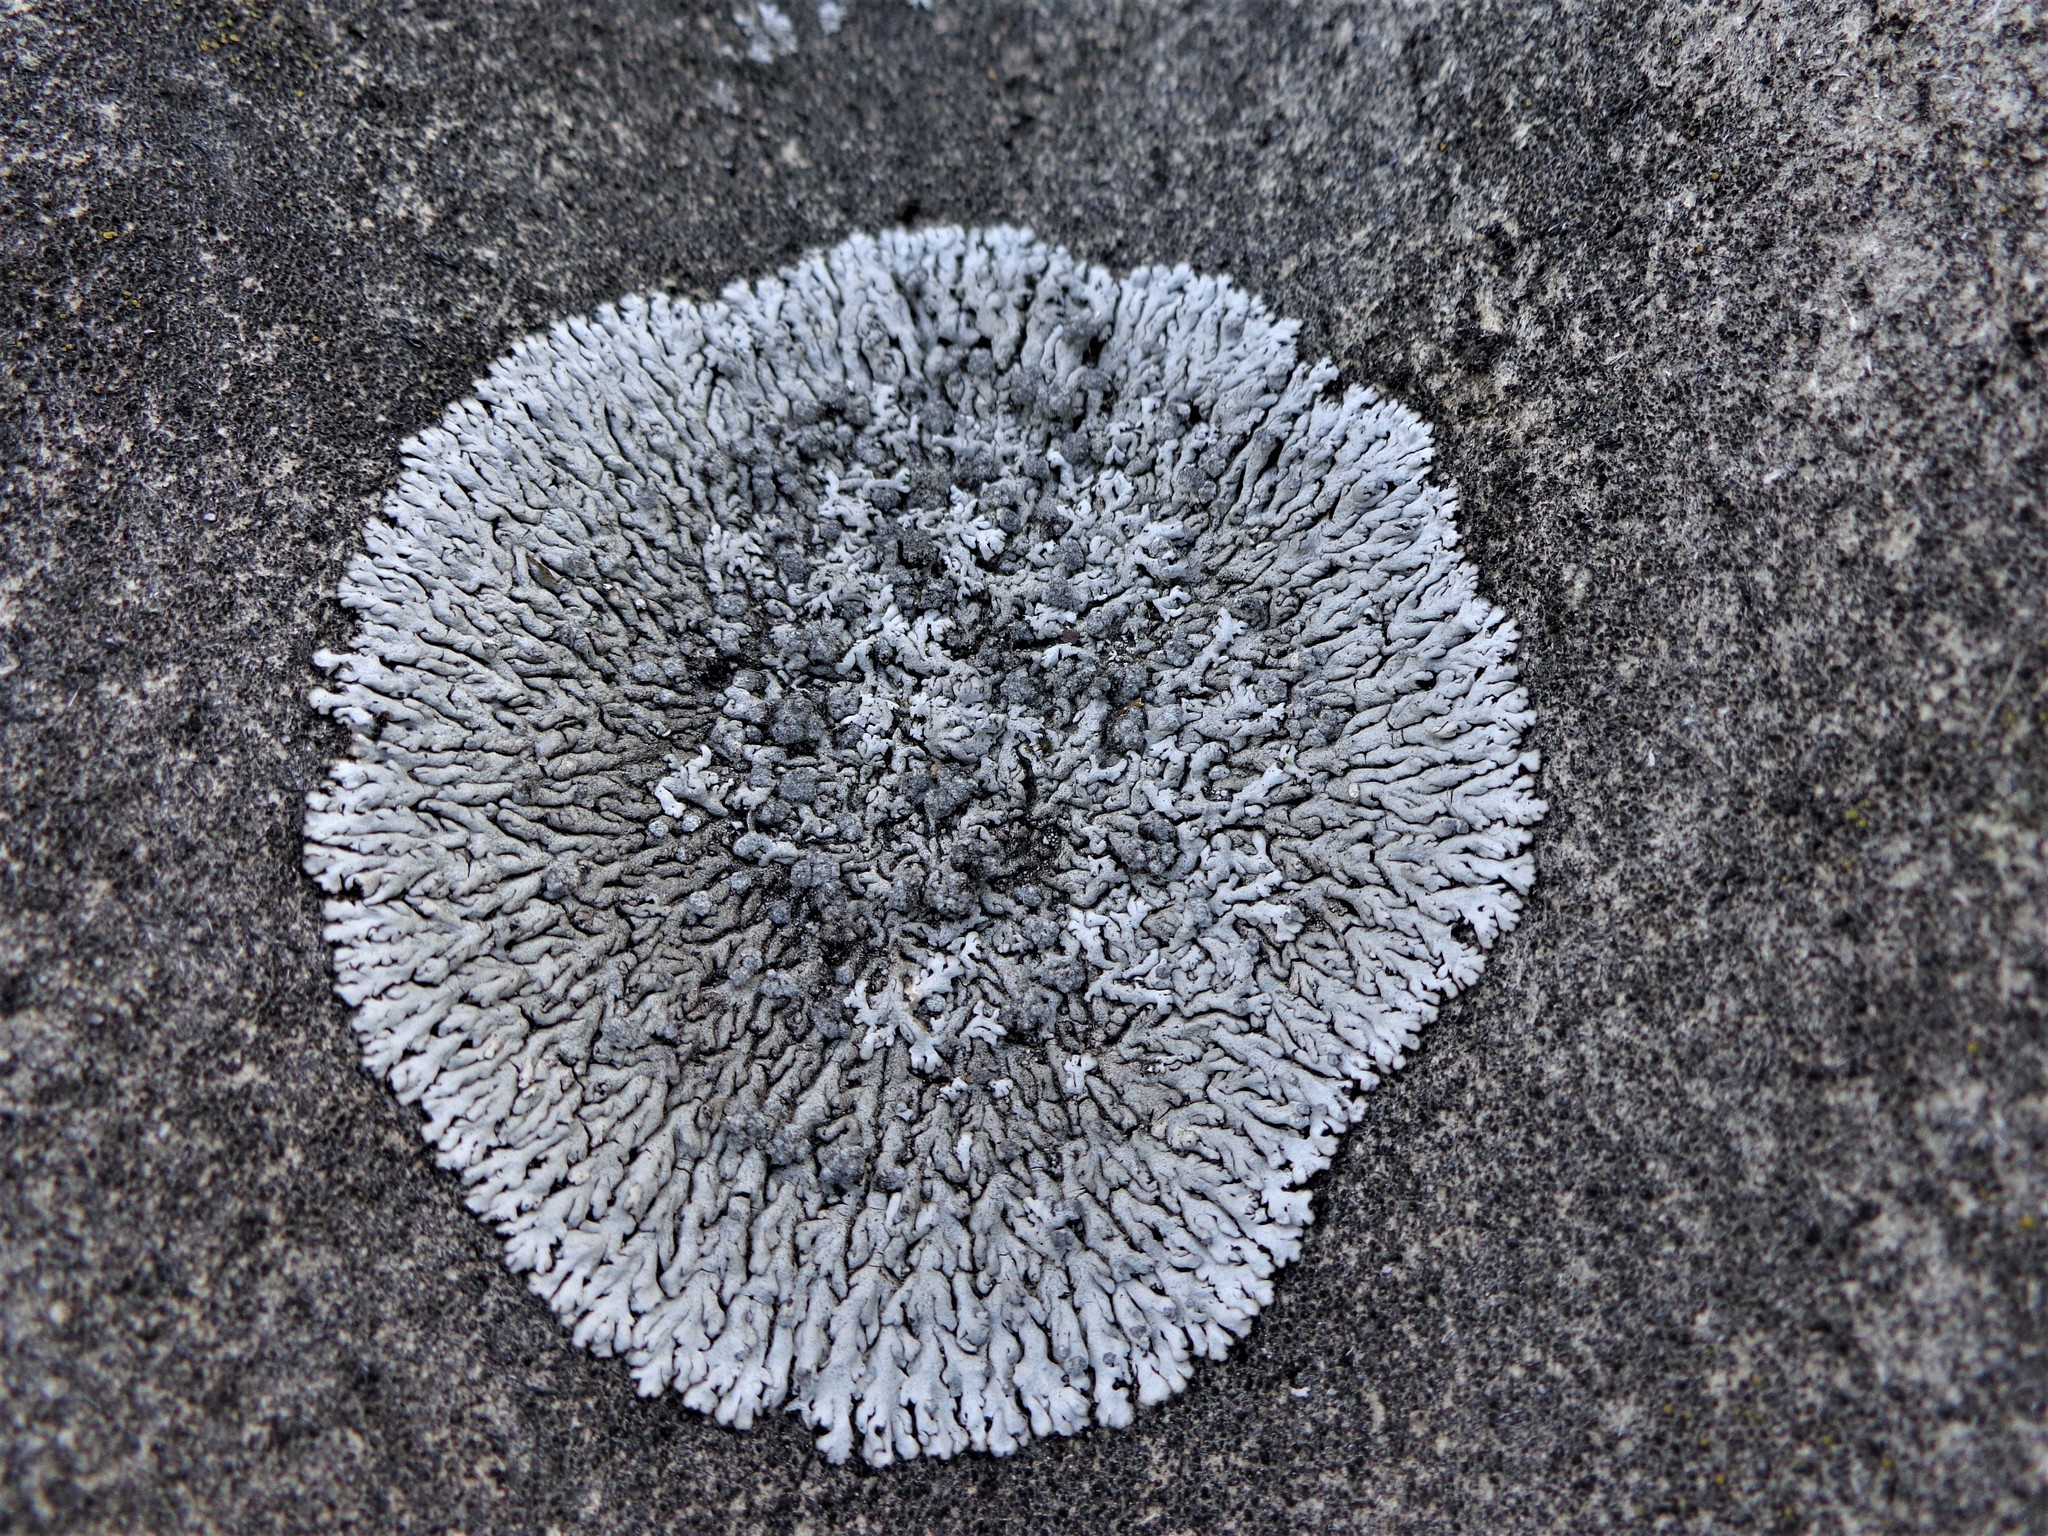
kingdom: Fungi
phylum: Ascomycota
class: Lecanoromycetes
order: Caliciales
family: Physciaceae
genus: Physcia
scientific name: Physcia caesia
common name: Blue-gray rosette lichen
